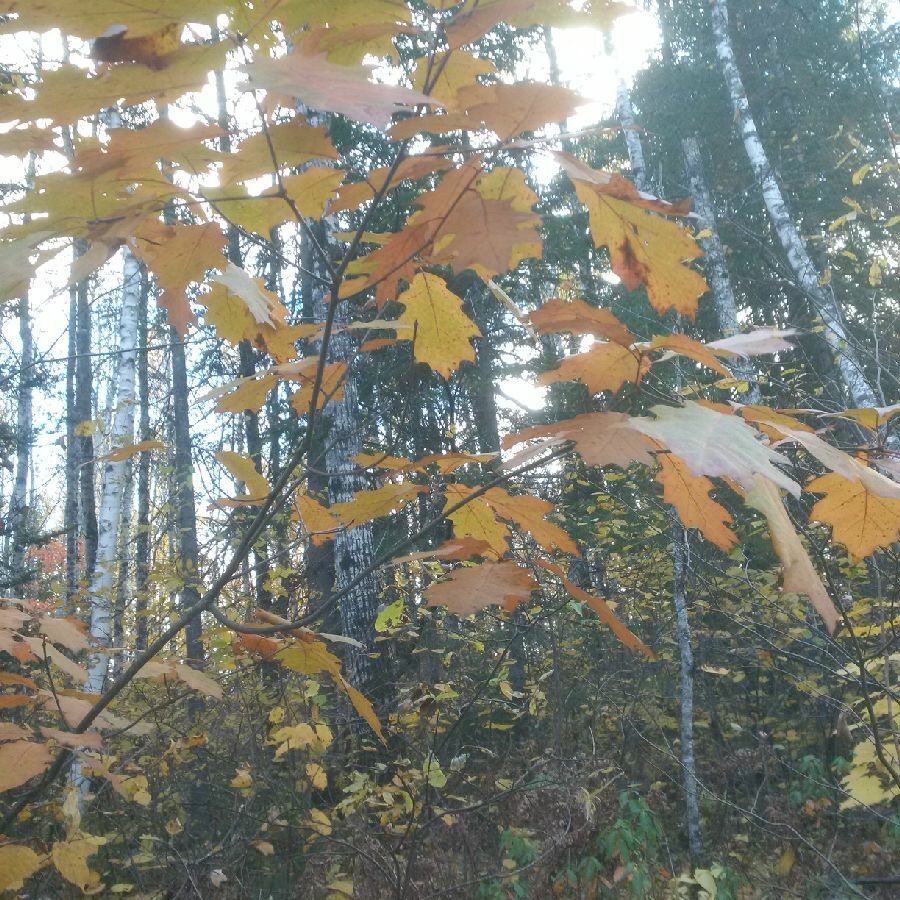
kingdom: Plantae
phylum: Tracheophyta
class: Magnoliopsida
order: Fagales
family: Fagaceae
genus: Quercus
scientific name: Quercus rubra
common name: Red oak
